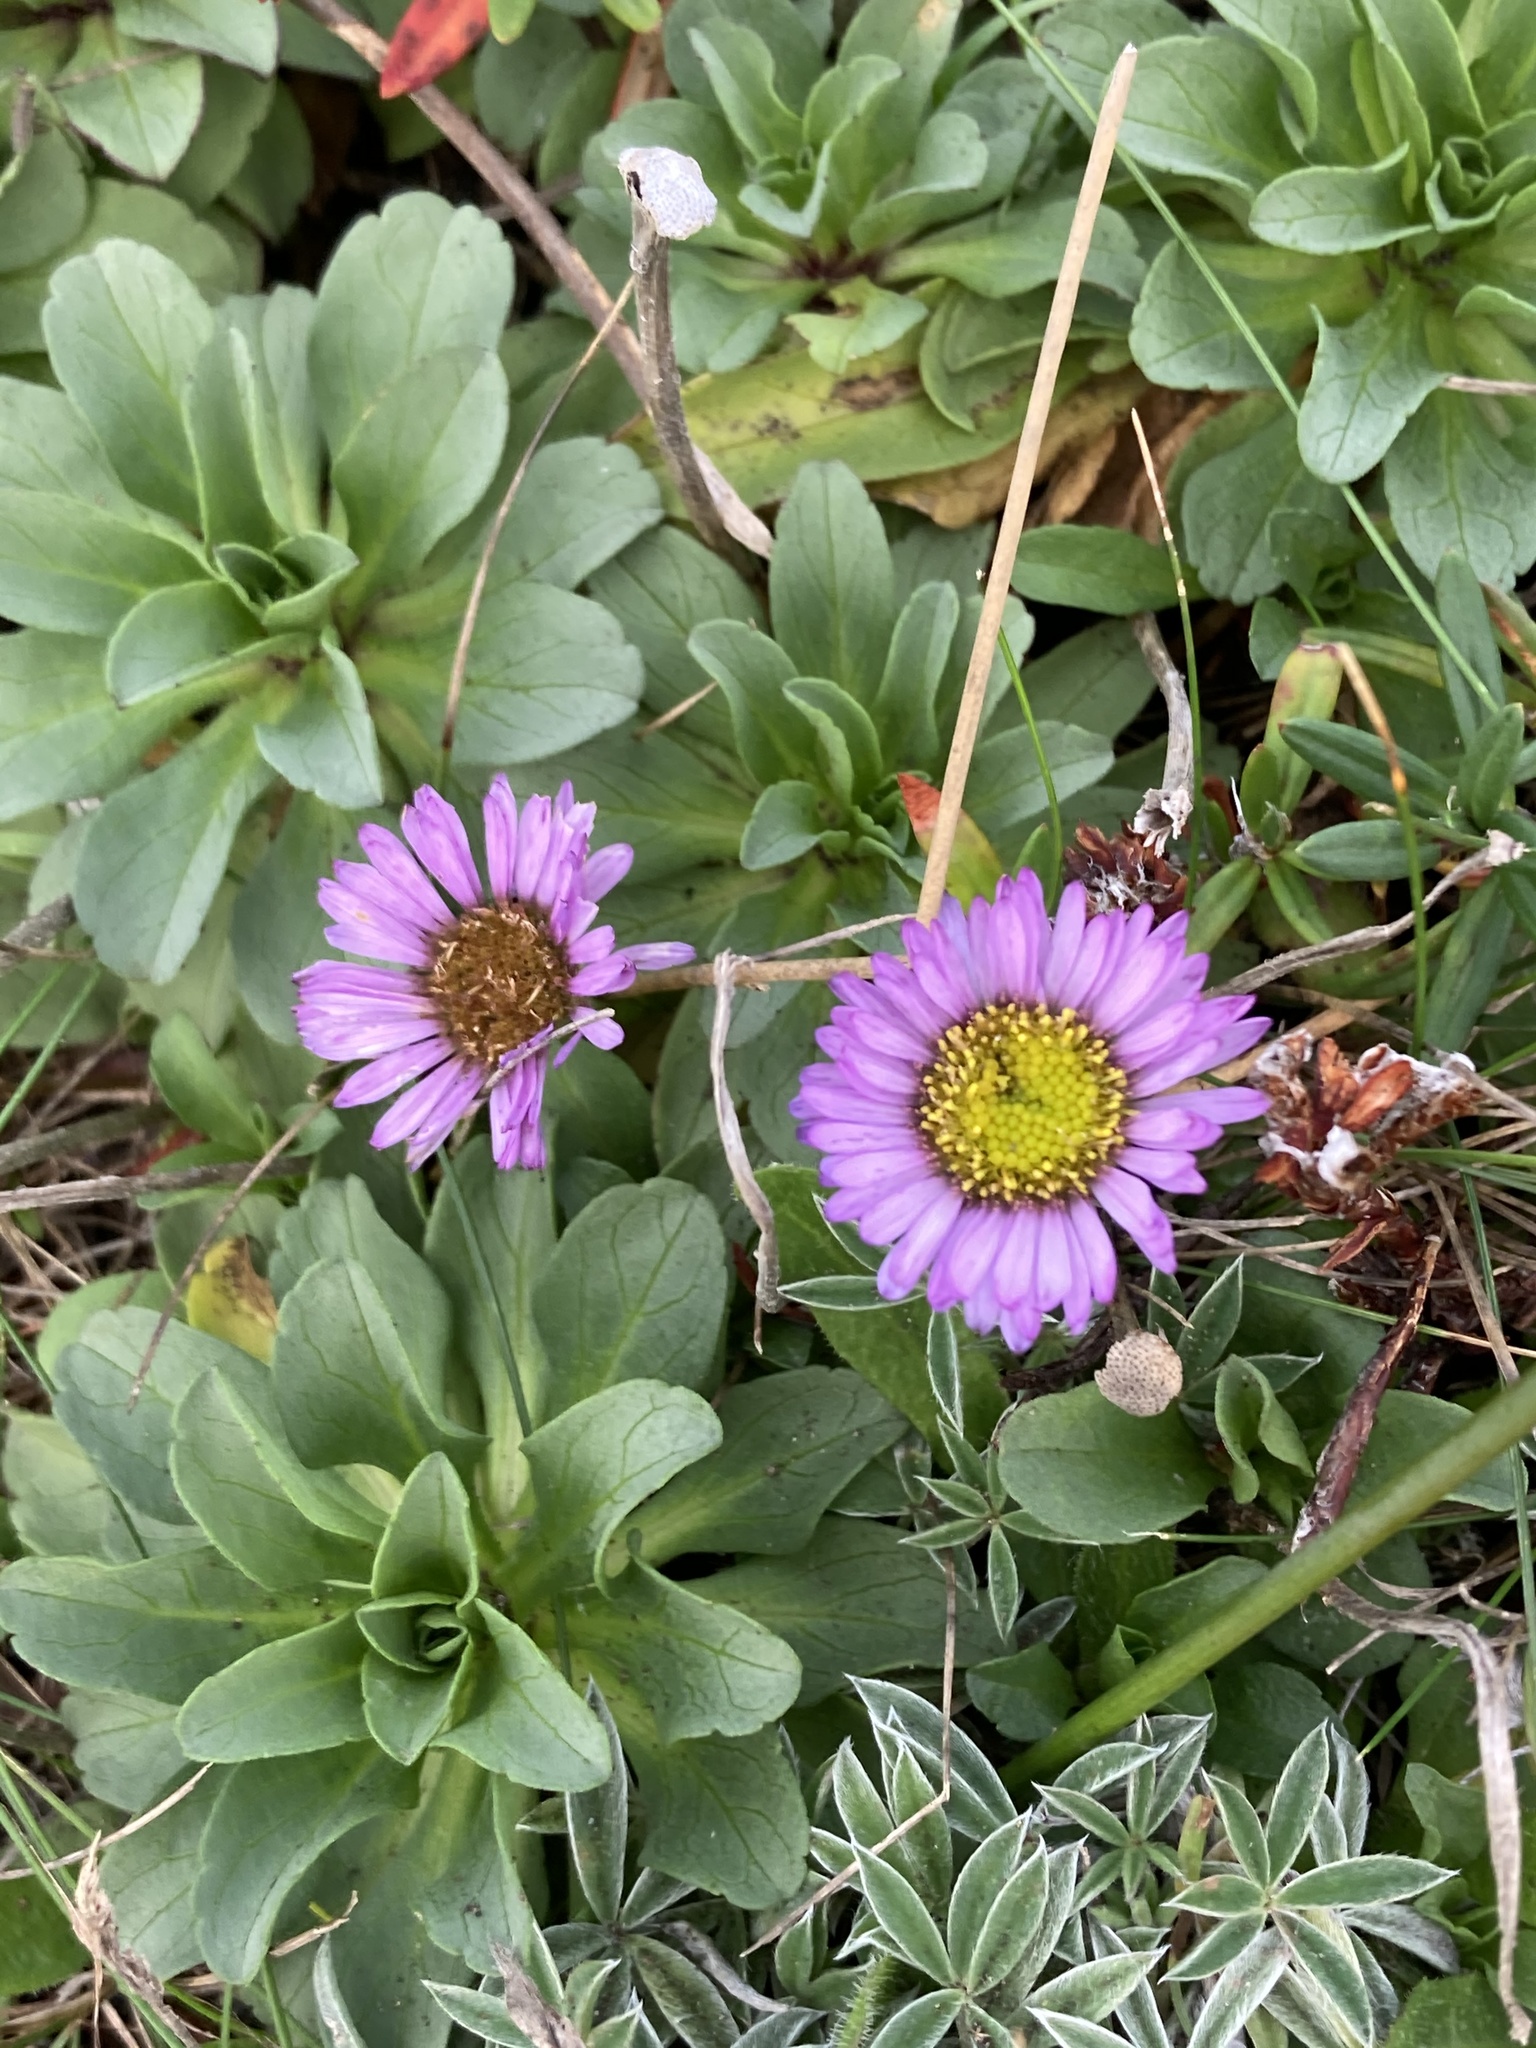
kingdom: Plantae
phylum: Tracheophyta
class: Magnoliopsida
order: Asterales
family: Asteraceae
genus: Erigeron
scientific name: Erigeron glaucus
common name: Seaside daisy
